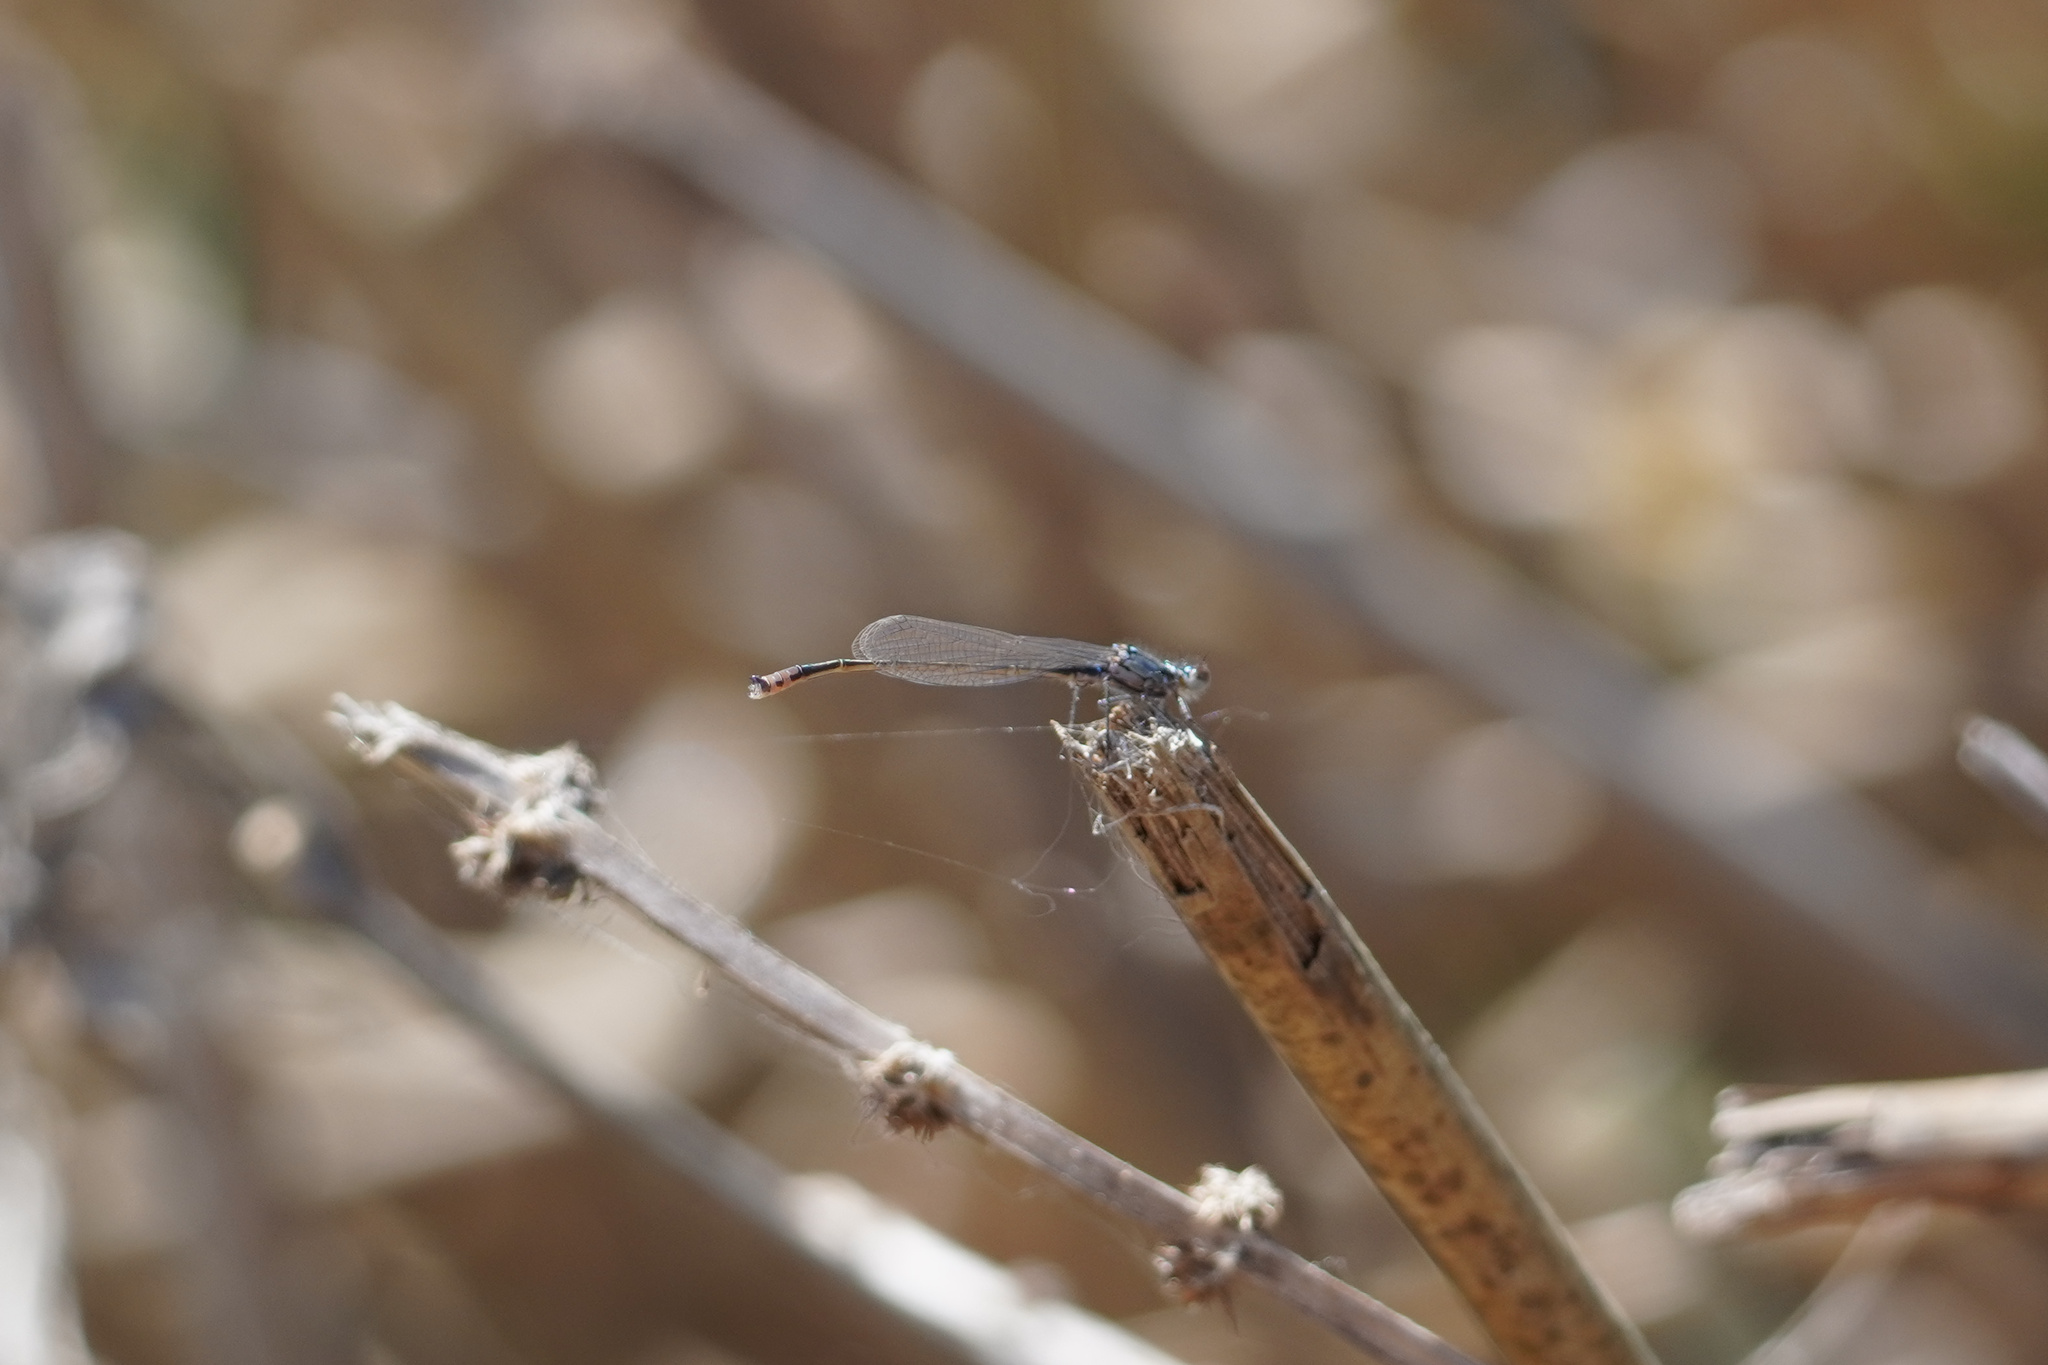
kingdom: Animalia
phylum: Arthropoda
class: Insecta
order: Odonata
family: Coenagrionidae
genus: Ischnura
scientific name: Ischnura cervula
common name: Pacific forktail
